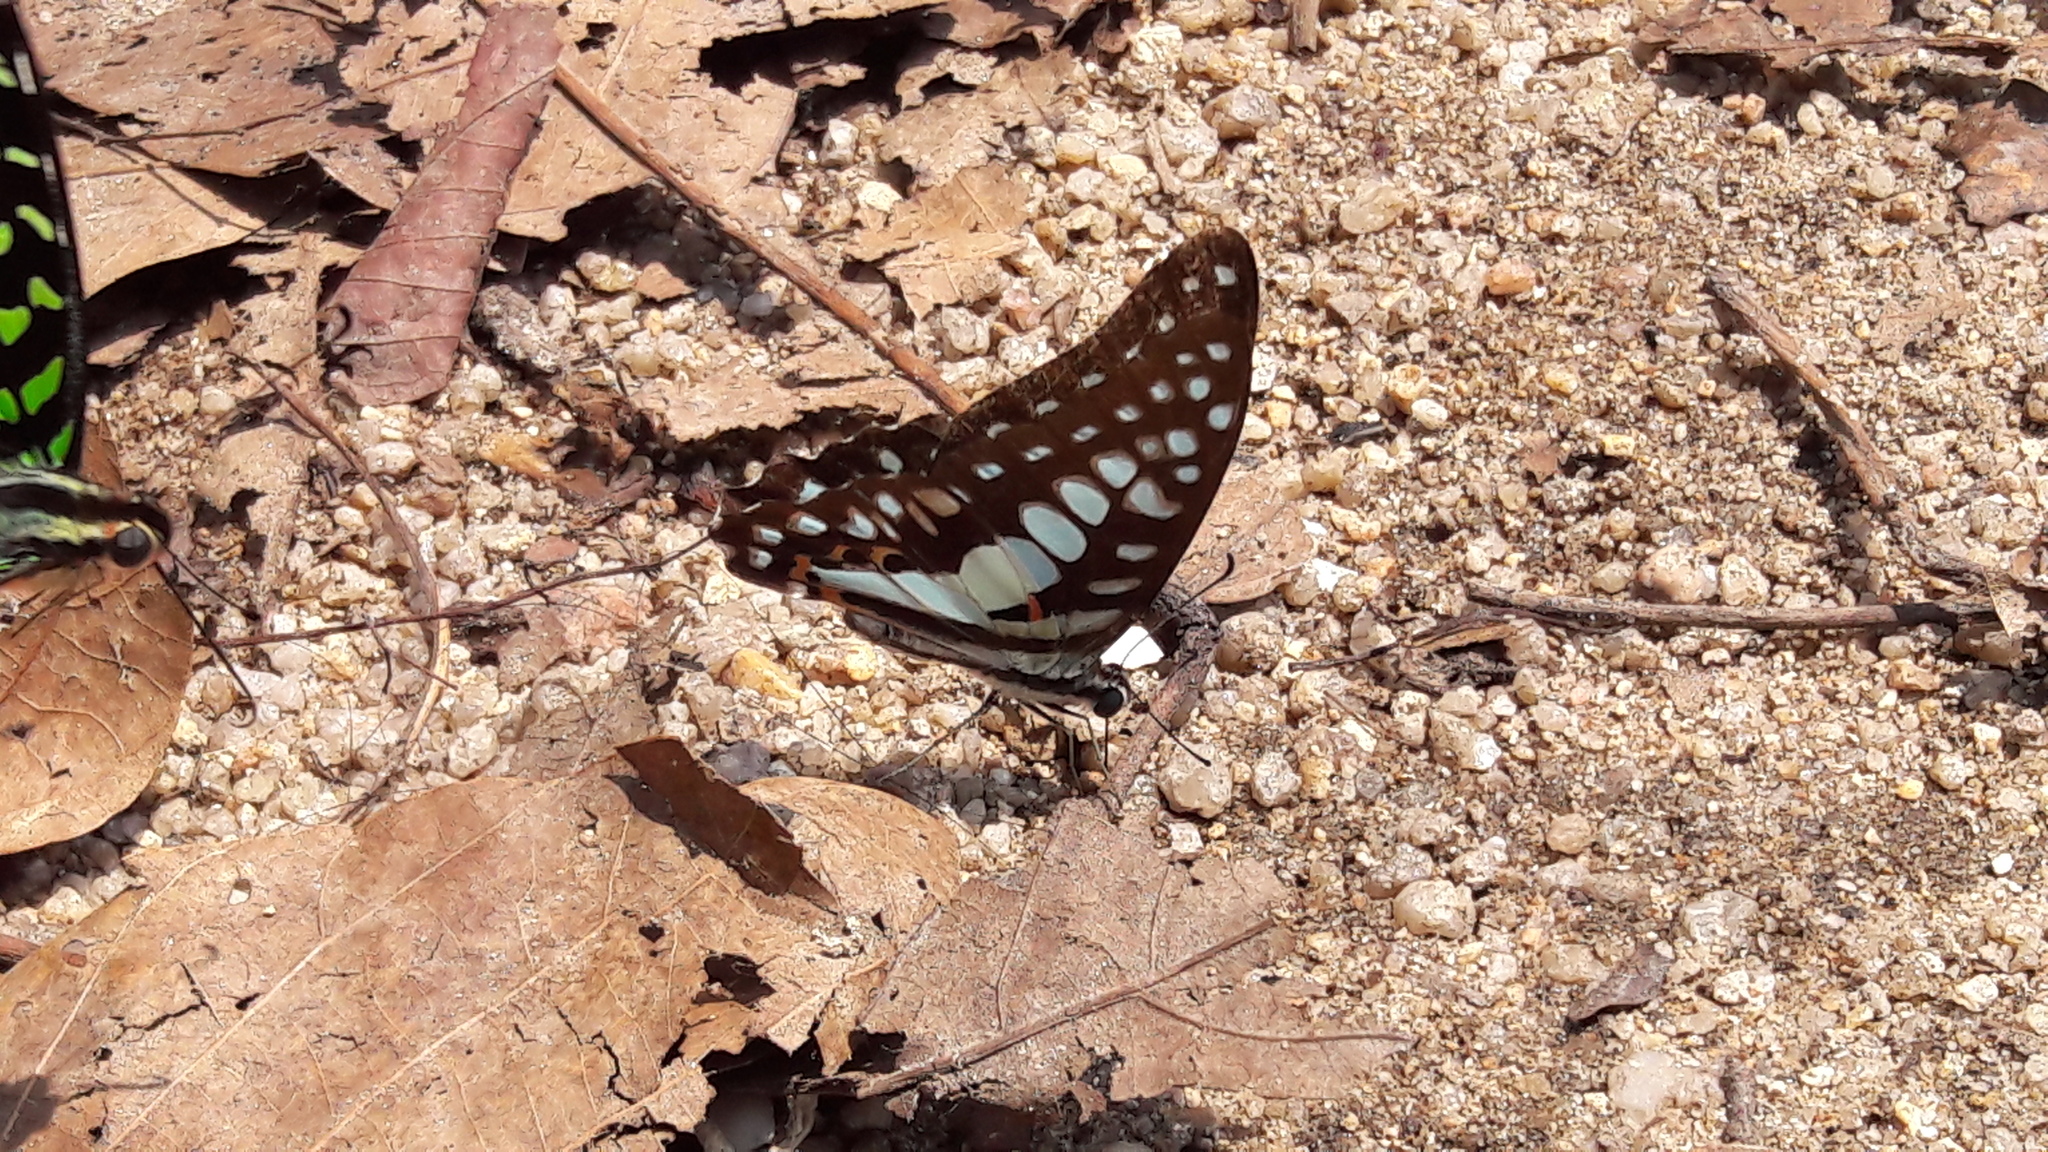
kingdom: Animalia
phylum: Arthropoda
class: Insecta
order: Lepidoptera
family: Papilionidae
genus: Graphium
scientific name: Graphium doson
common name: Common jay
